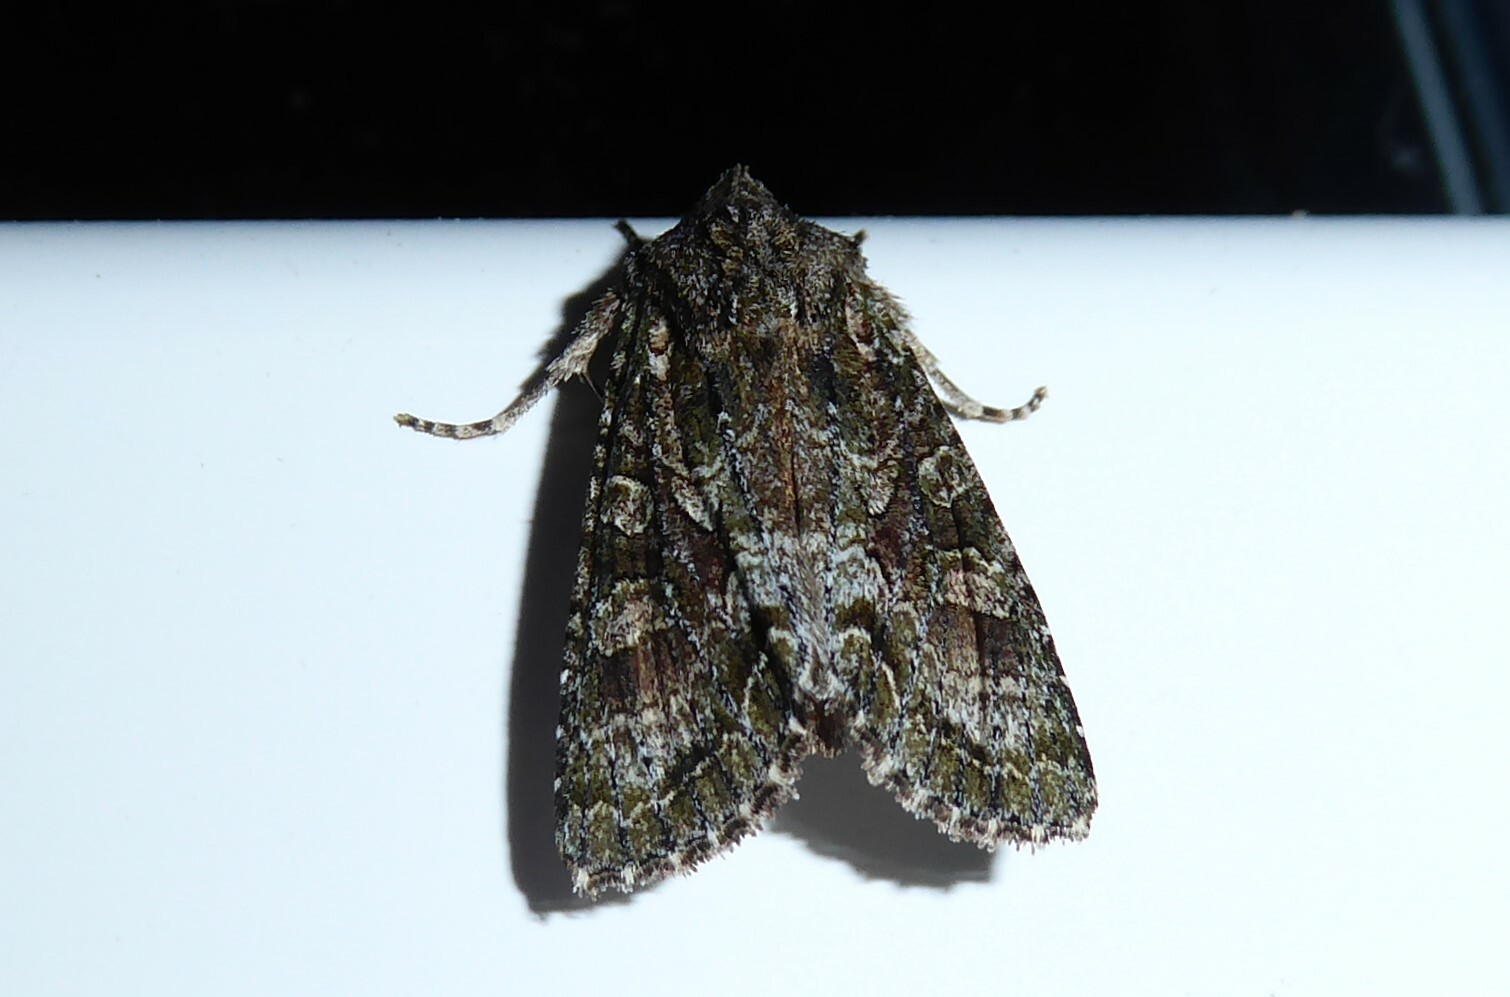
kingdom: Animalia
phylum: Arthropoda
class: Insecta
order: Lepidoptera
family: Noctuidae
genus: Ichneutica
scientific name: Ichneutica mutans
